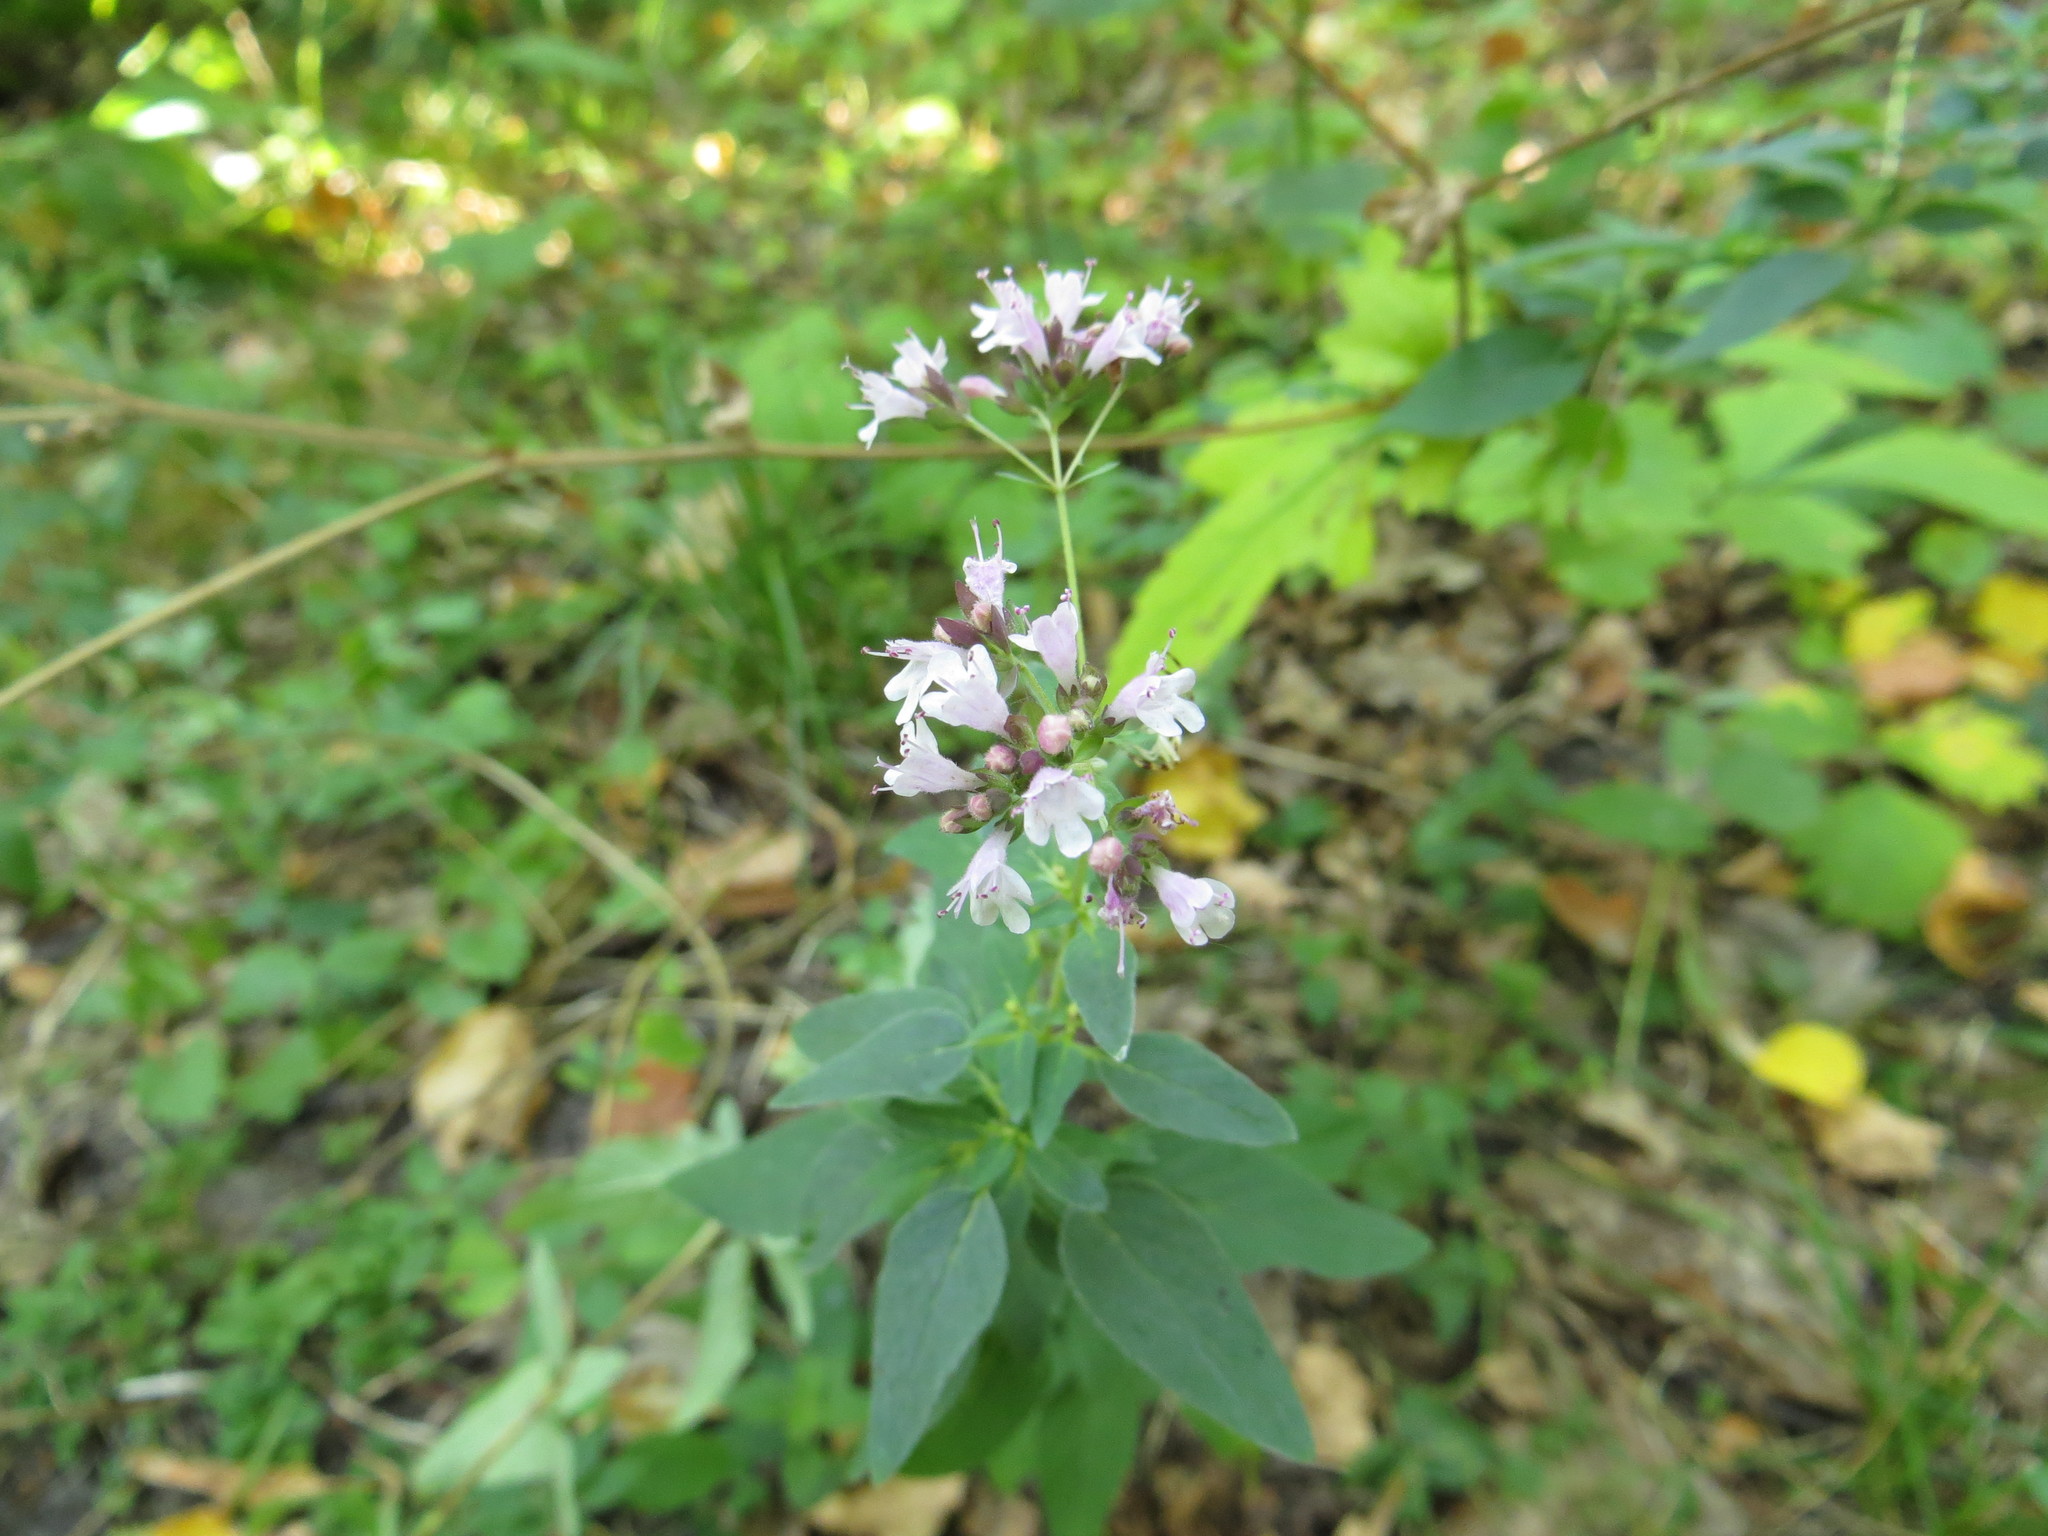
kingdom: Plantae
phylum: Tracheophyta
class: Magnoliopsida
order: Lamiales
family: Lamiaceae
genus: Origanum
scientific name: Origanum vulgare
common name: Wild marjoram
